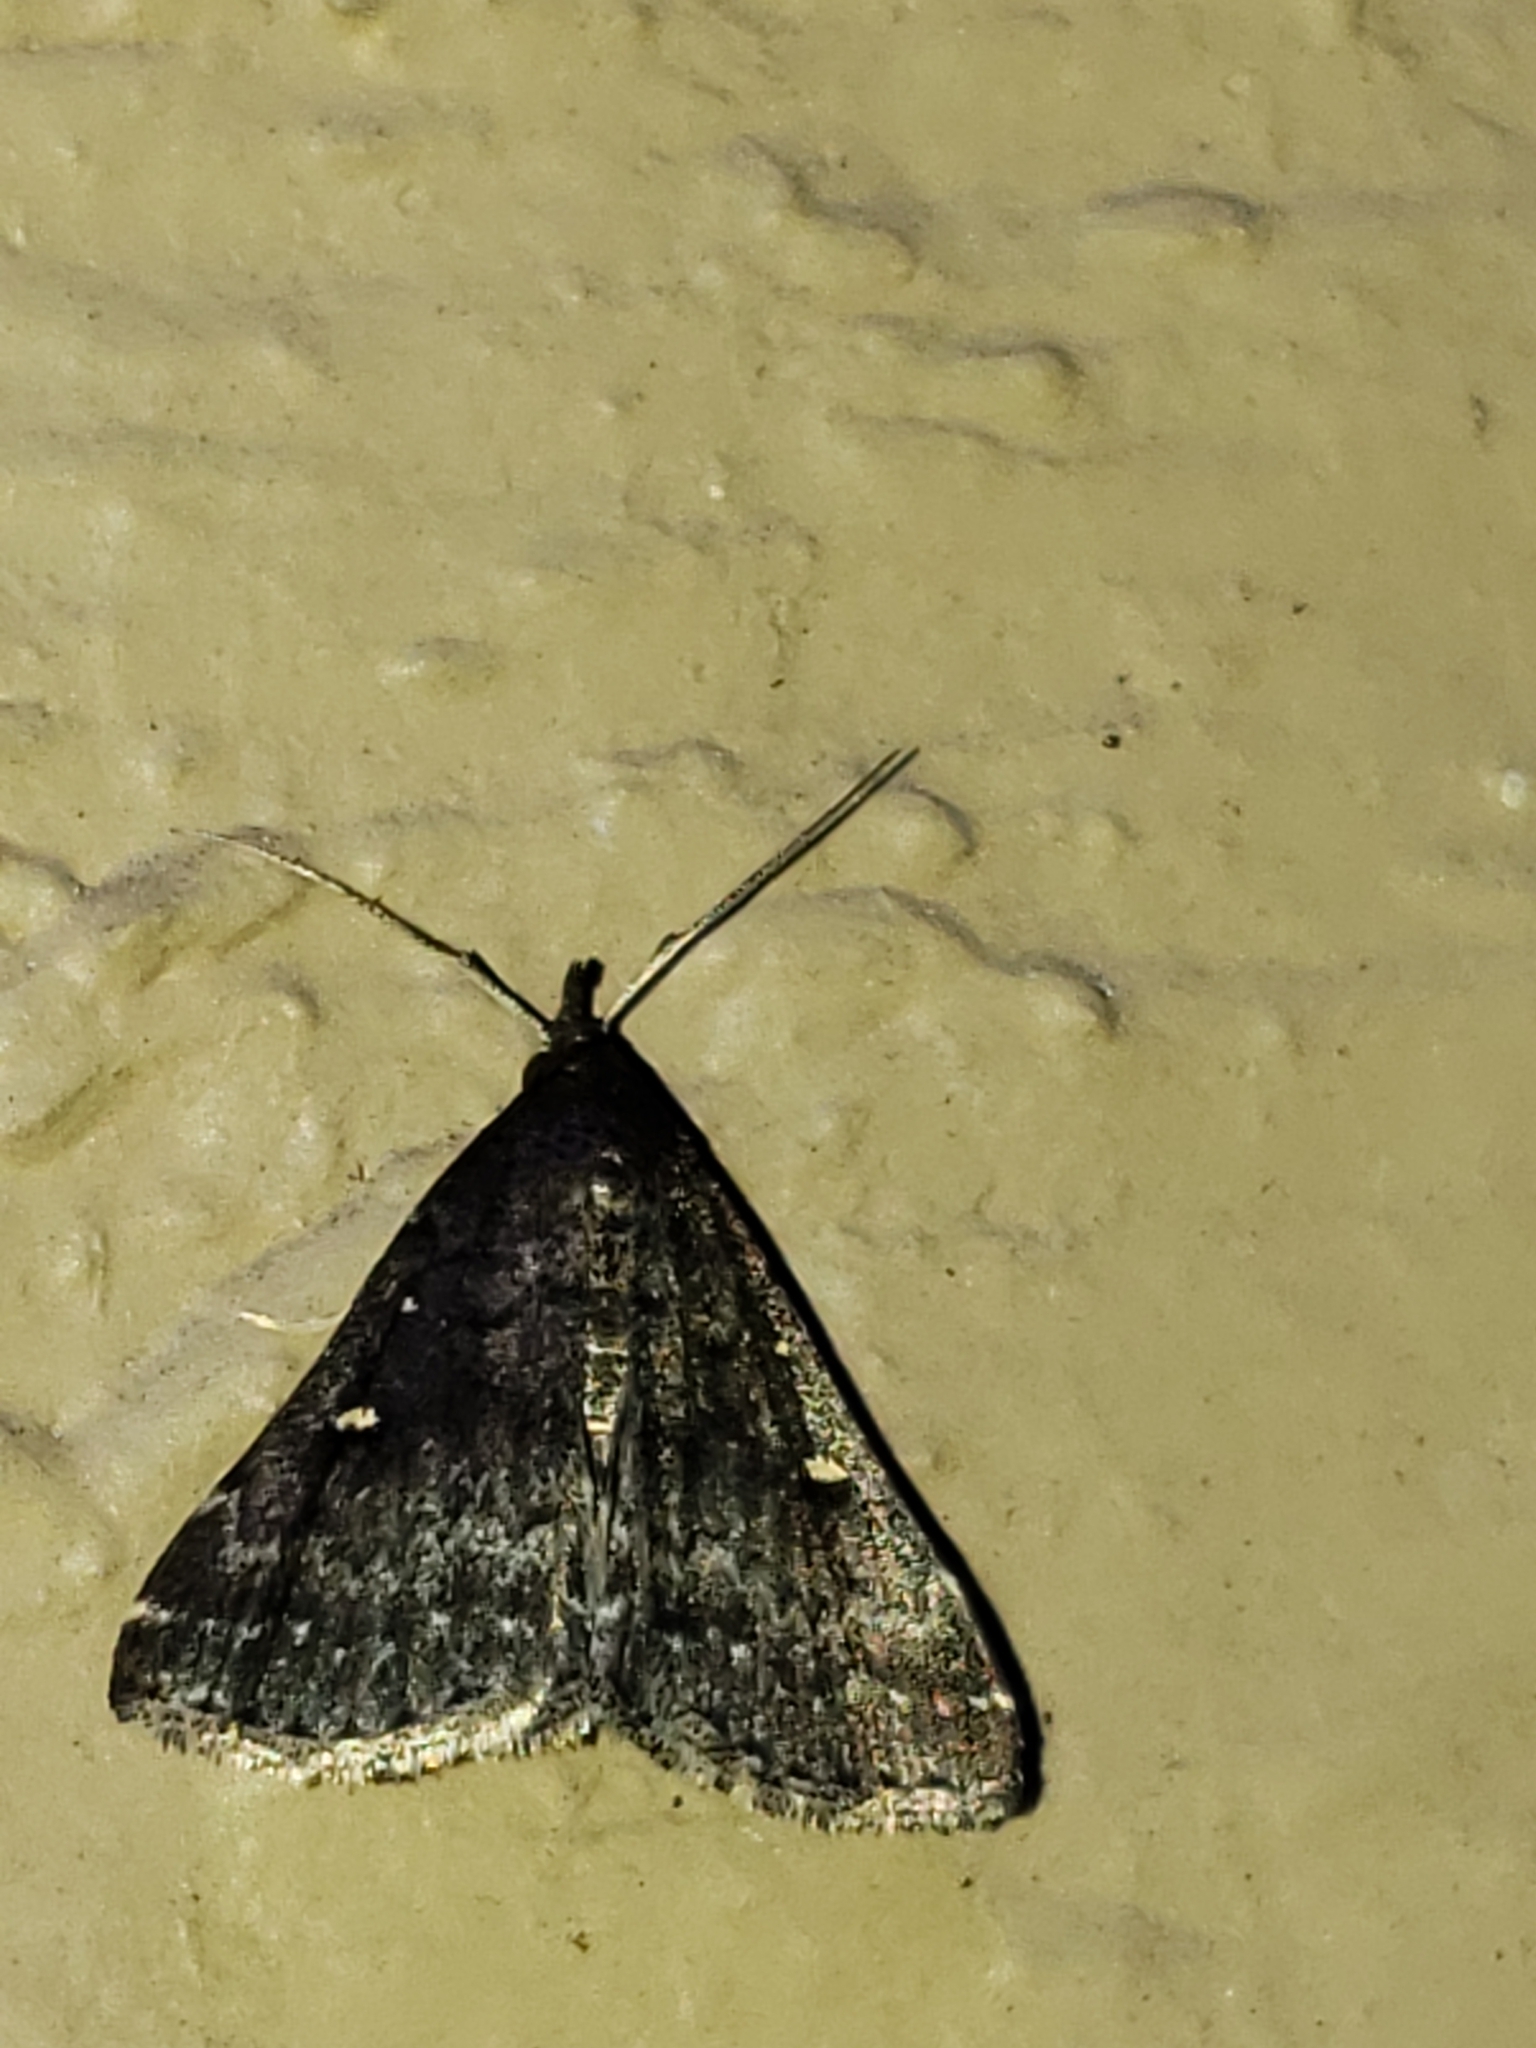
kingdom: Animalia
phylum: Arthropoda
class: Insecta
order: Lepidoptera
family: Erebidae
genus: Tetanolita
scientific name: Tetanolita mynesalis
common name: Smoky tetanolita moth
